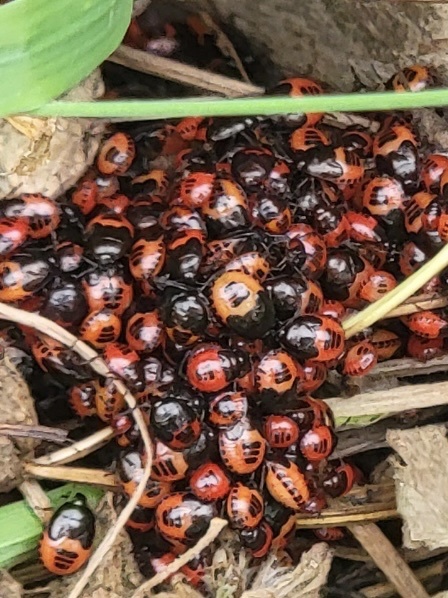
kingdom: Animalia
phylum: Arthropoda
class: Insecta
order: Hemiptera
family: Cydnidae
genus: Sehirus
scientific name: Sehirus cinctus
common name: White-margined burrower bug
